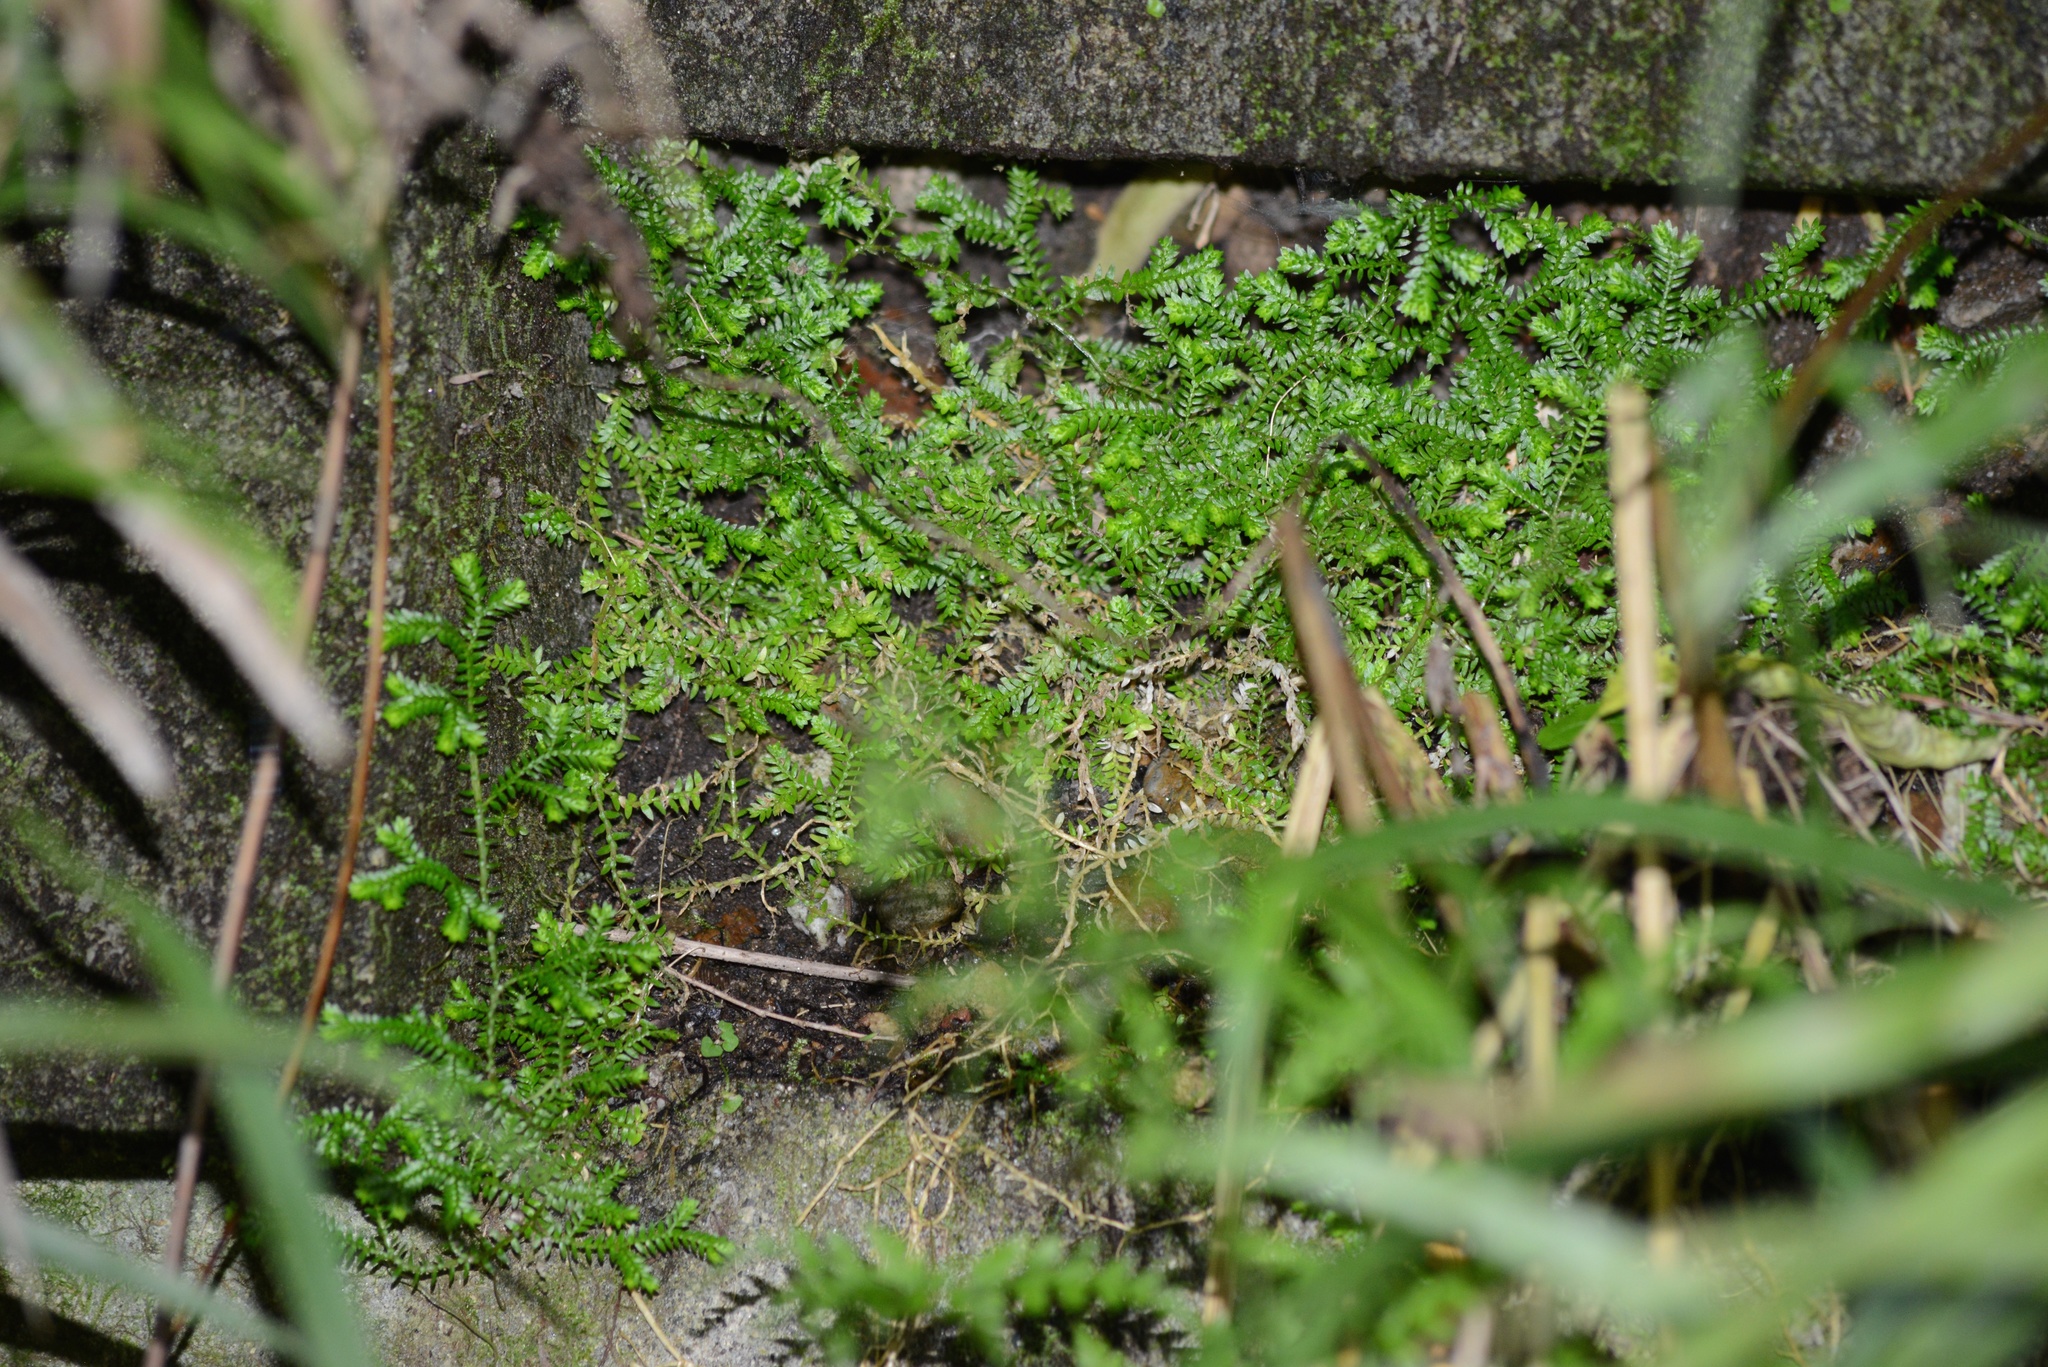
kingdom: Plantae
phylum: Tracheophyta
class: Lycopodiopsida
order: Selaginellales
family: Selaginellaceae
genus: Selaginella
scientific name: Selaginella kraussiana
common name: Krauss' spikemoss
